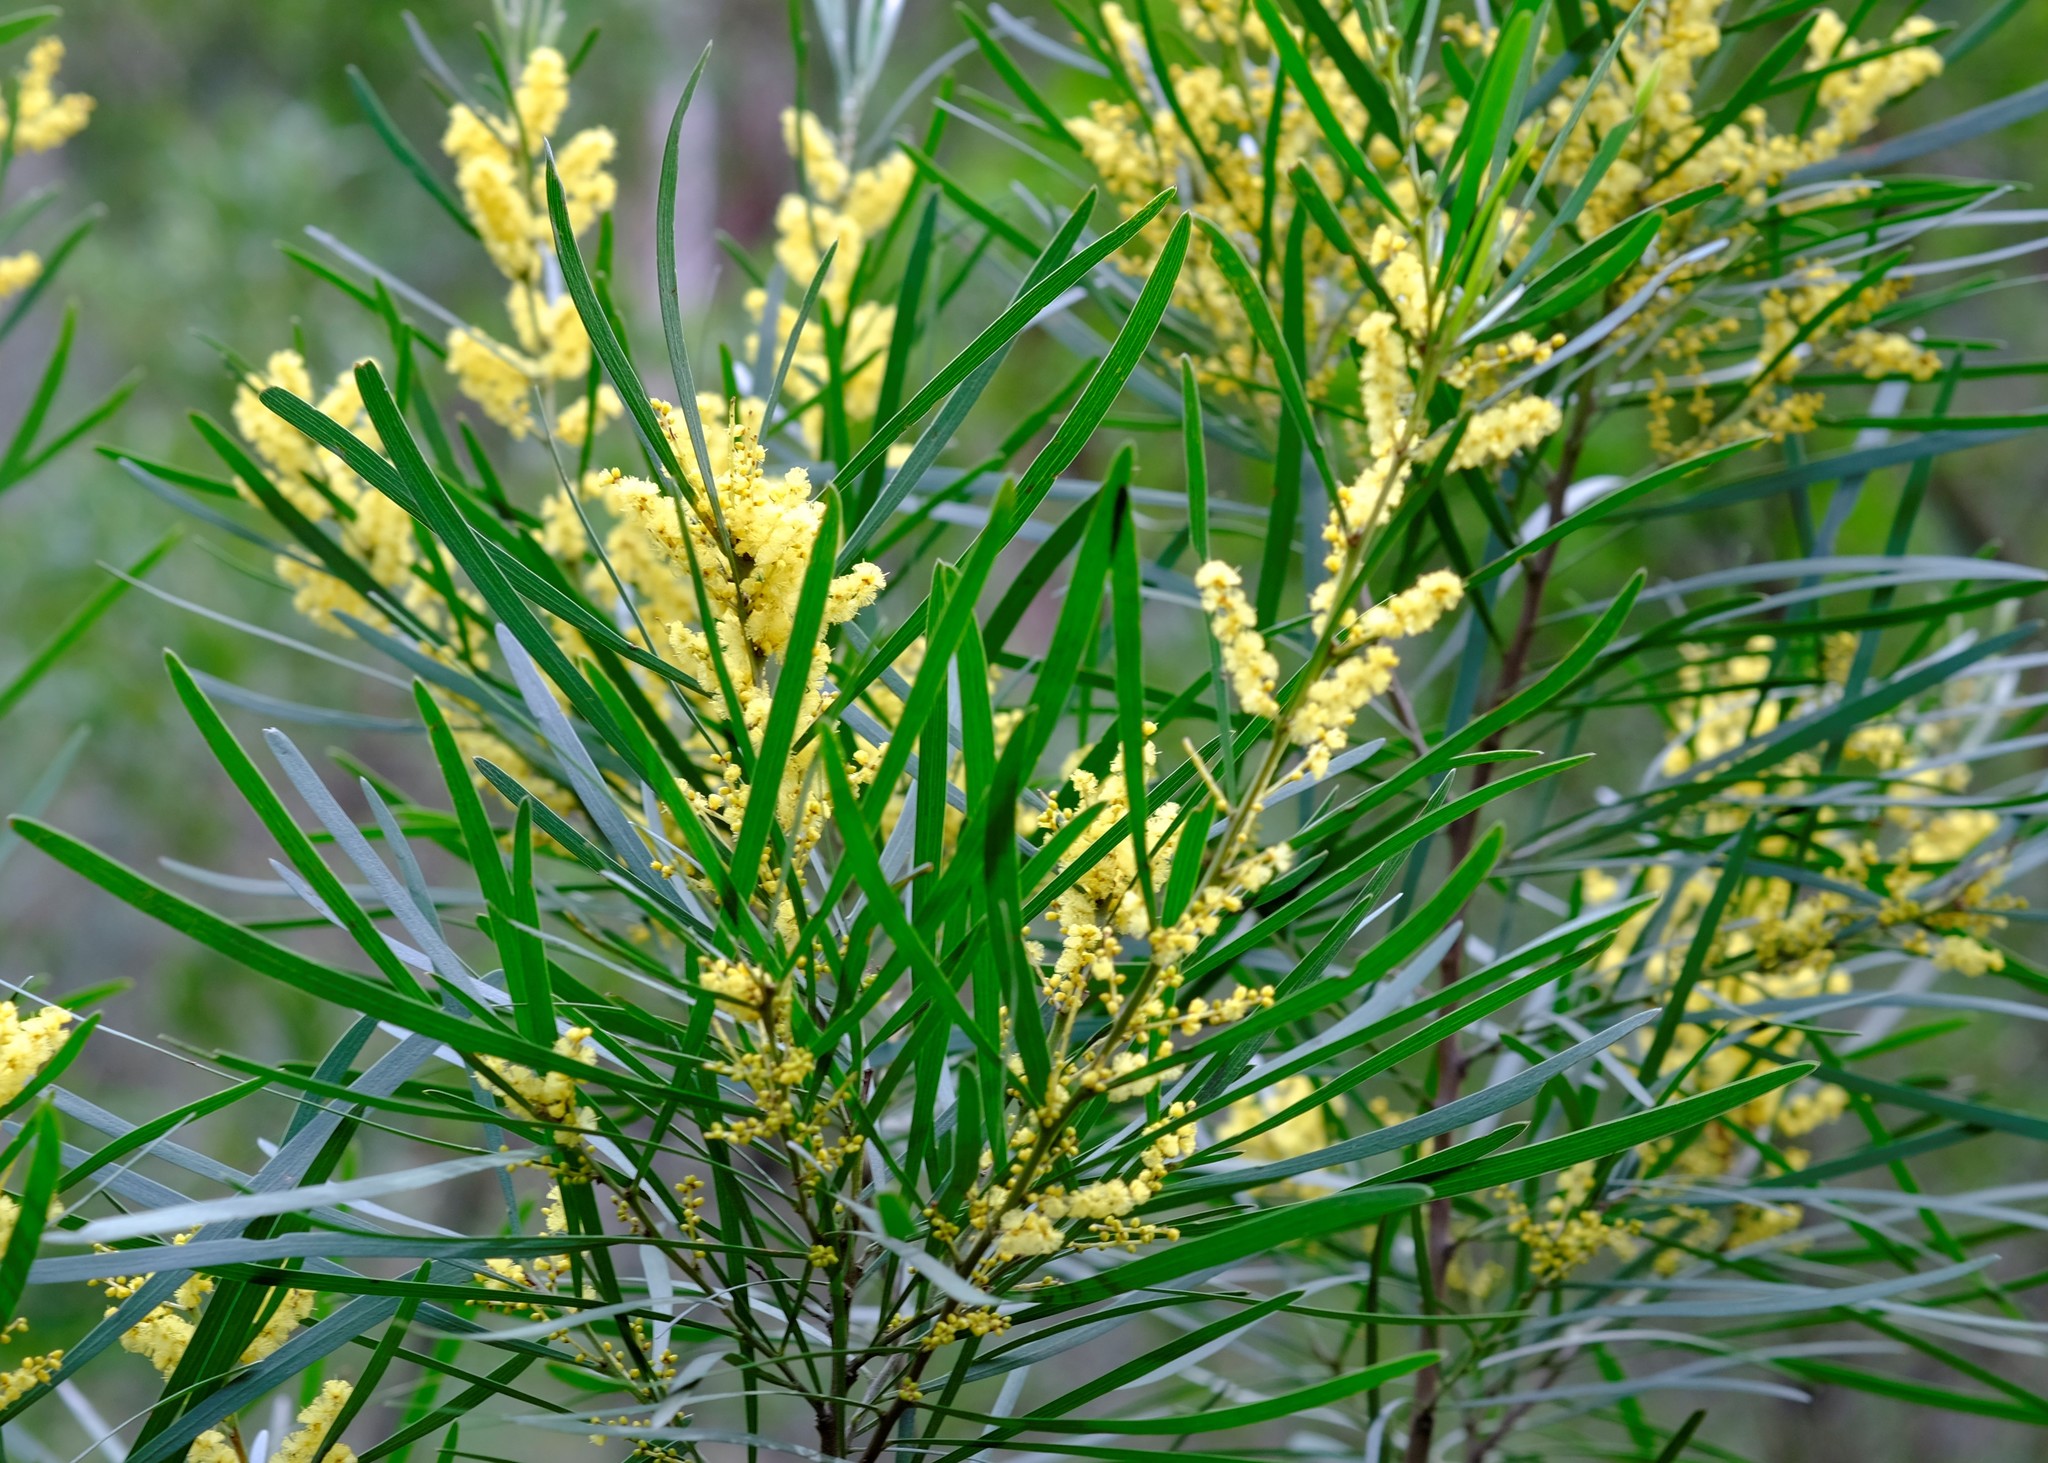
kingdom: Plantae
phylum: Tracheophyta
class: Magnoliopsida
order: Fabales
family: Fabaceae
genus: Acacia
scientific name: Acacia mucronata
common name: Variable sallow wattle
